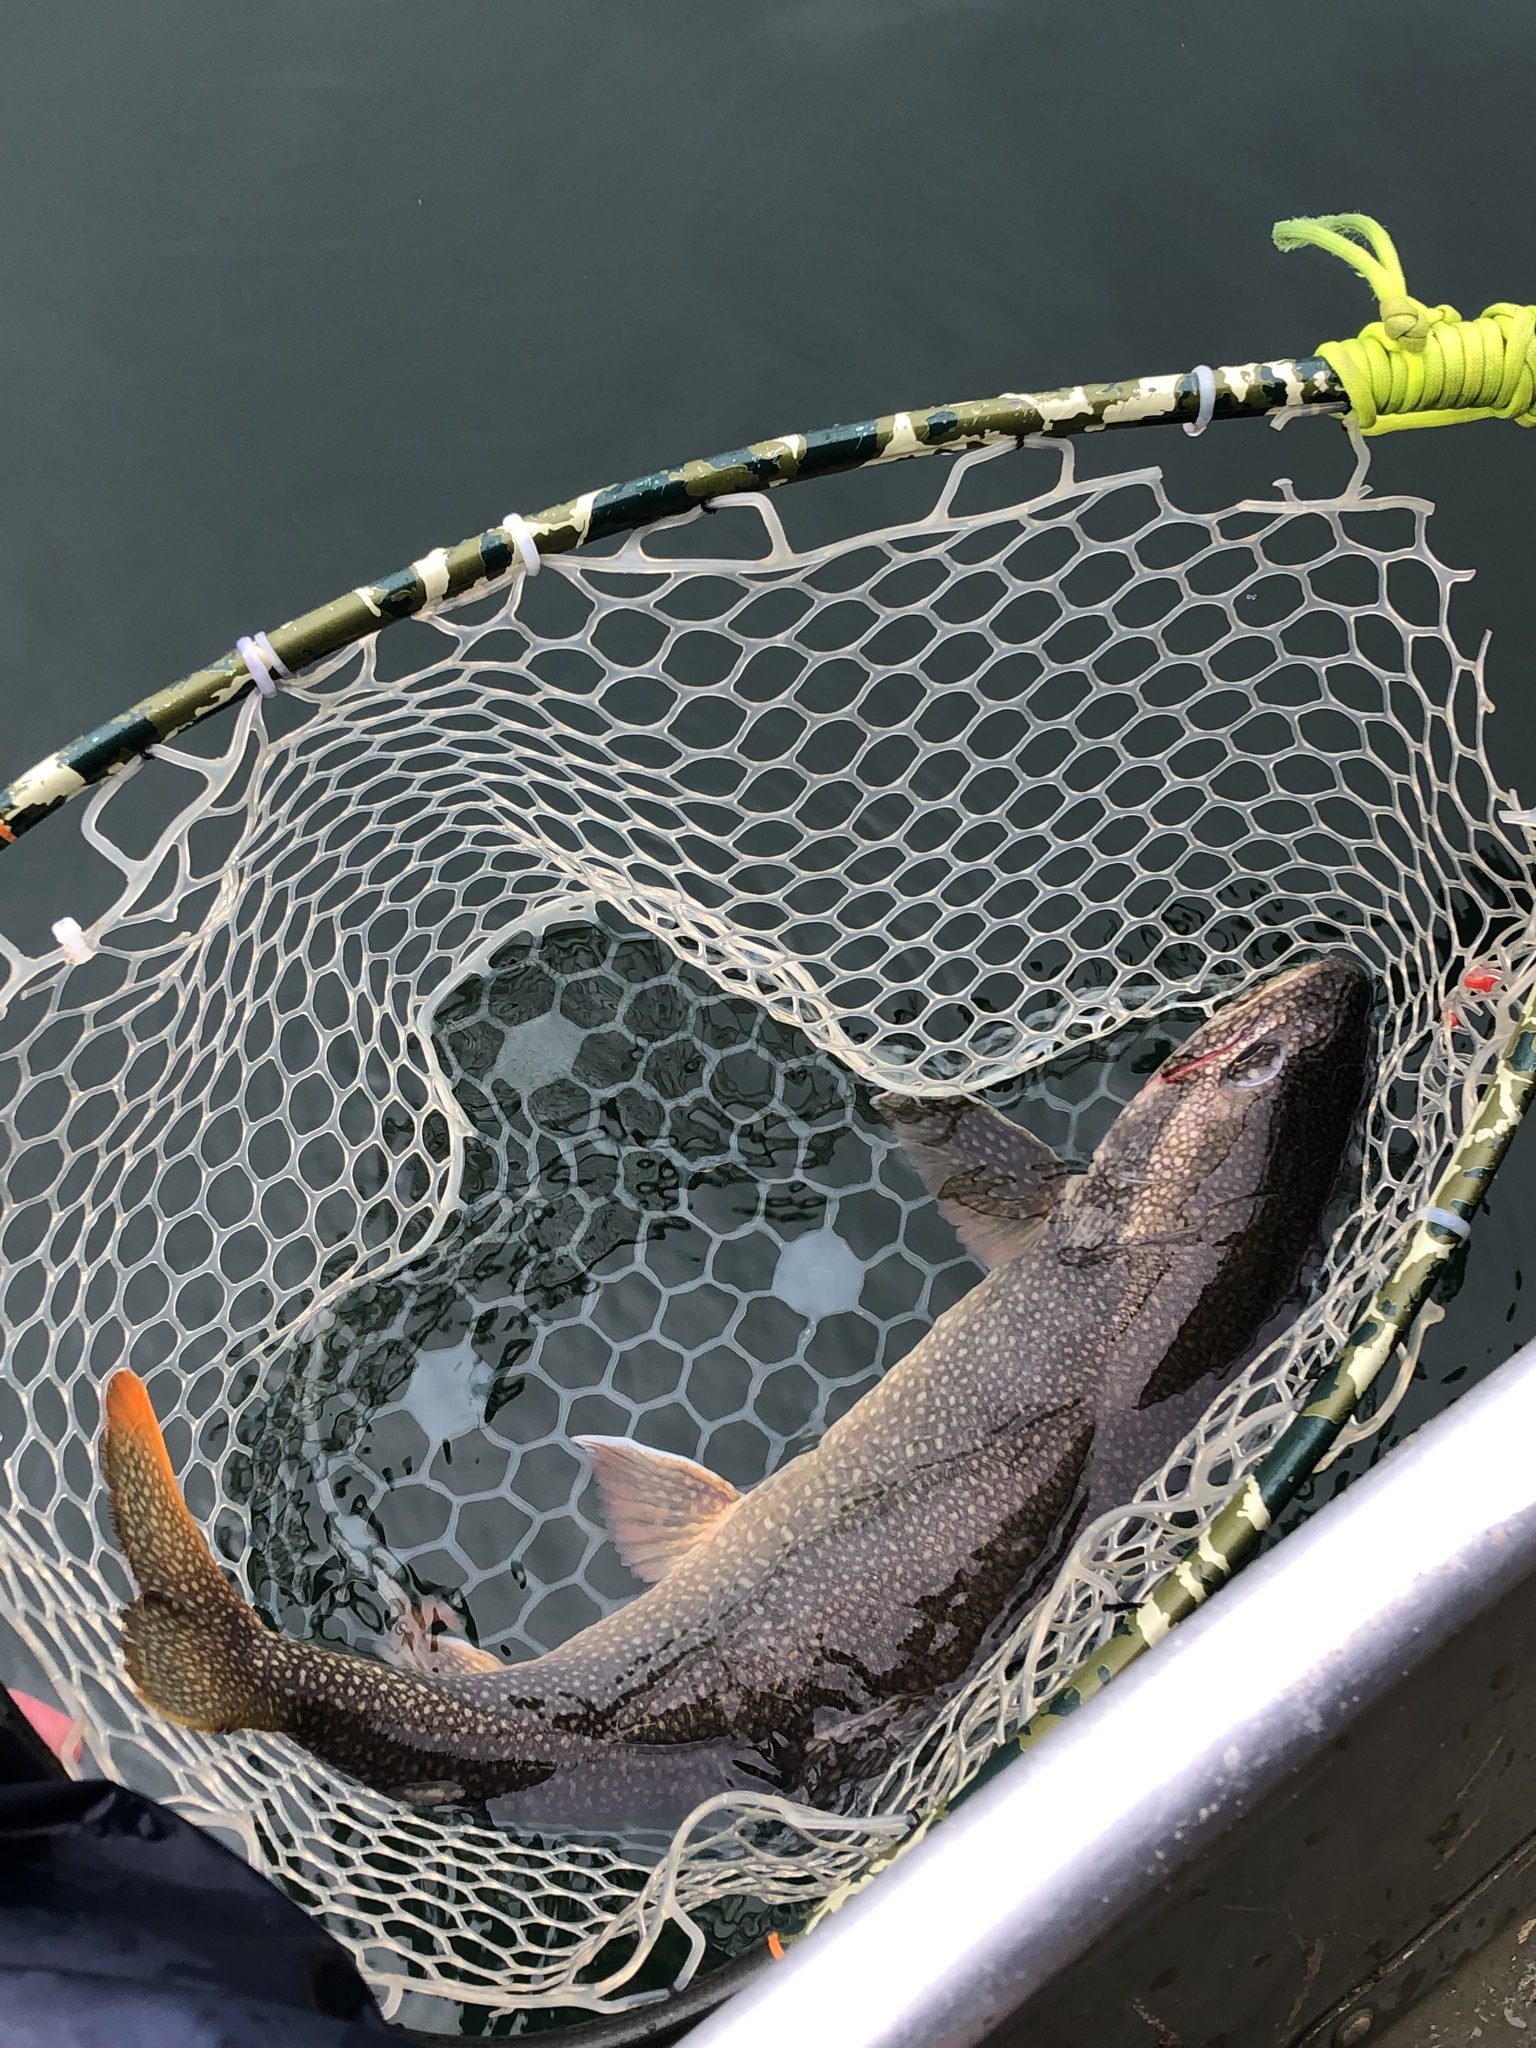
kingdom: Animalia
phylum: Chordata
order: Salmoniformes
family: Salmonidae
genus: Salvelinus
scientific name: Salvelinus namaycush
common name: American lake charr
